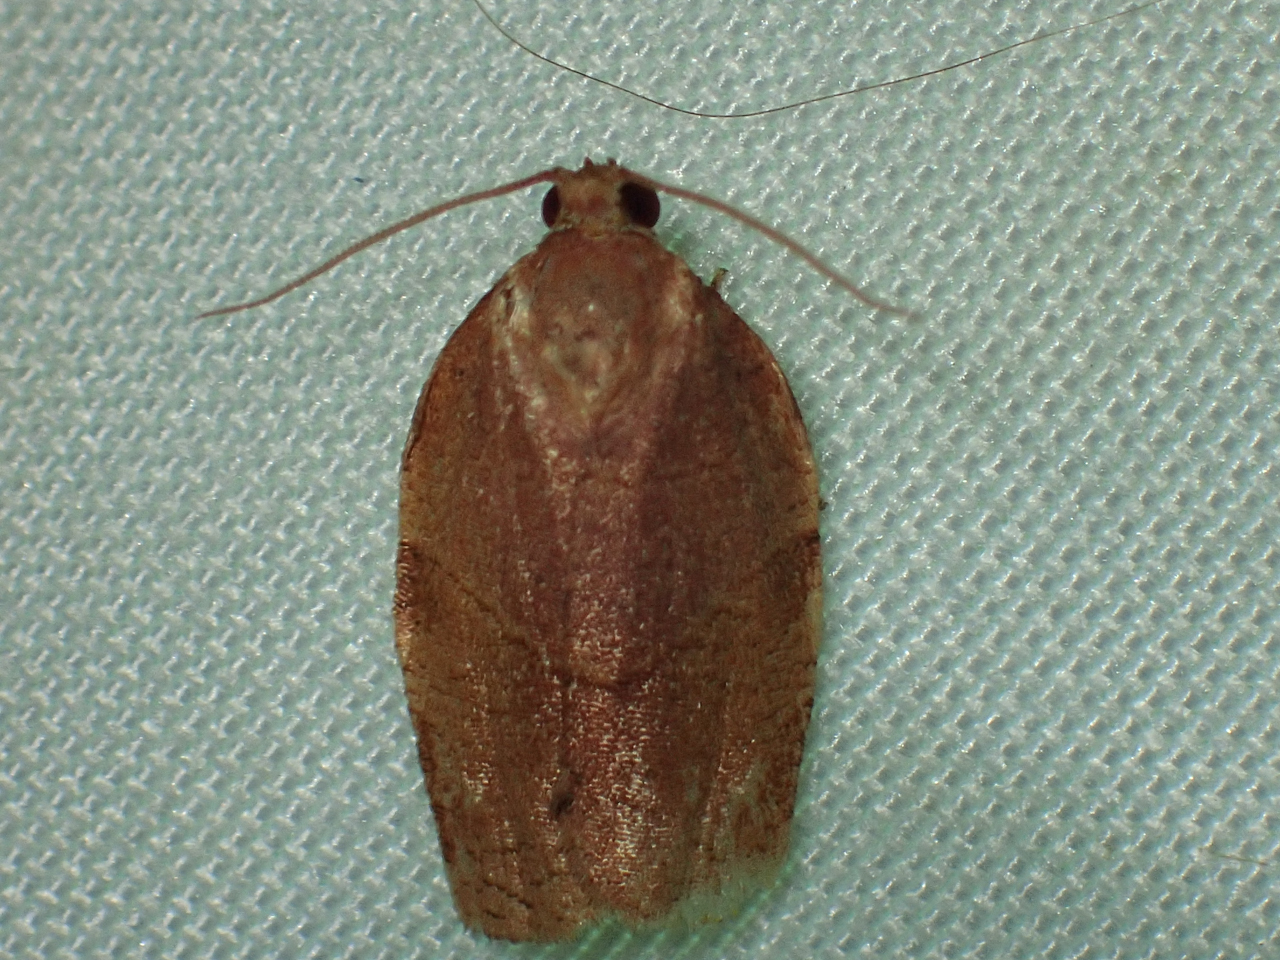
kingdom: Animalia
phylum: Arthropoda
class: Insecta
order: Lepidoptera
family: Tortricidae
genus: Choristoneura
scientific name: Choristoneura rosaceana
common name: Oblique-banded leafroller moth
